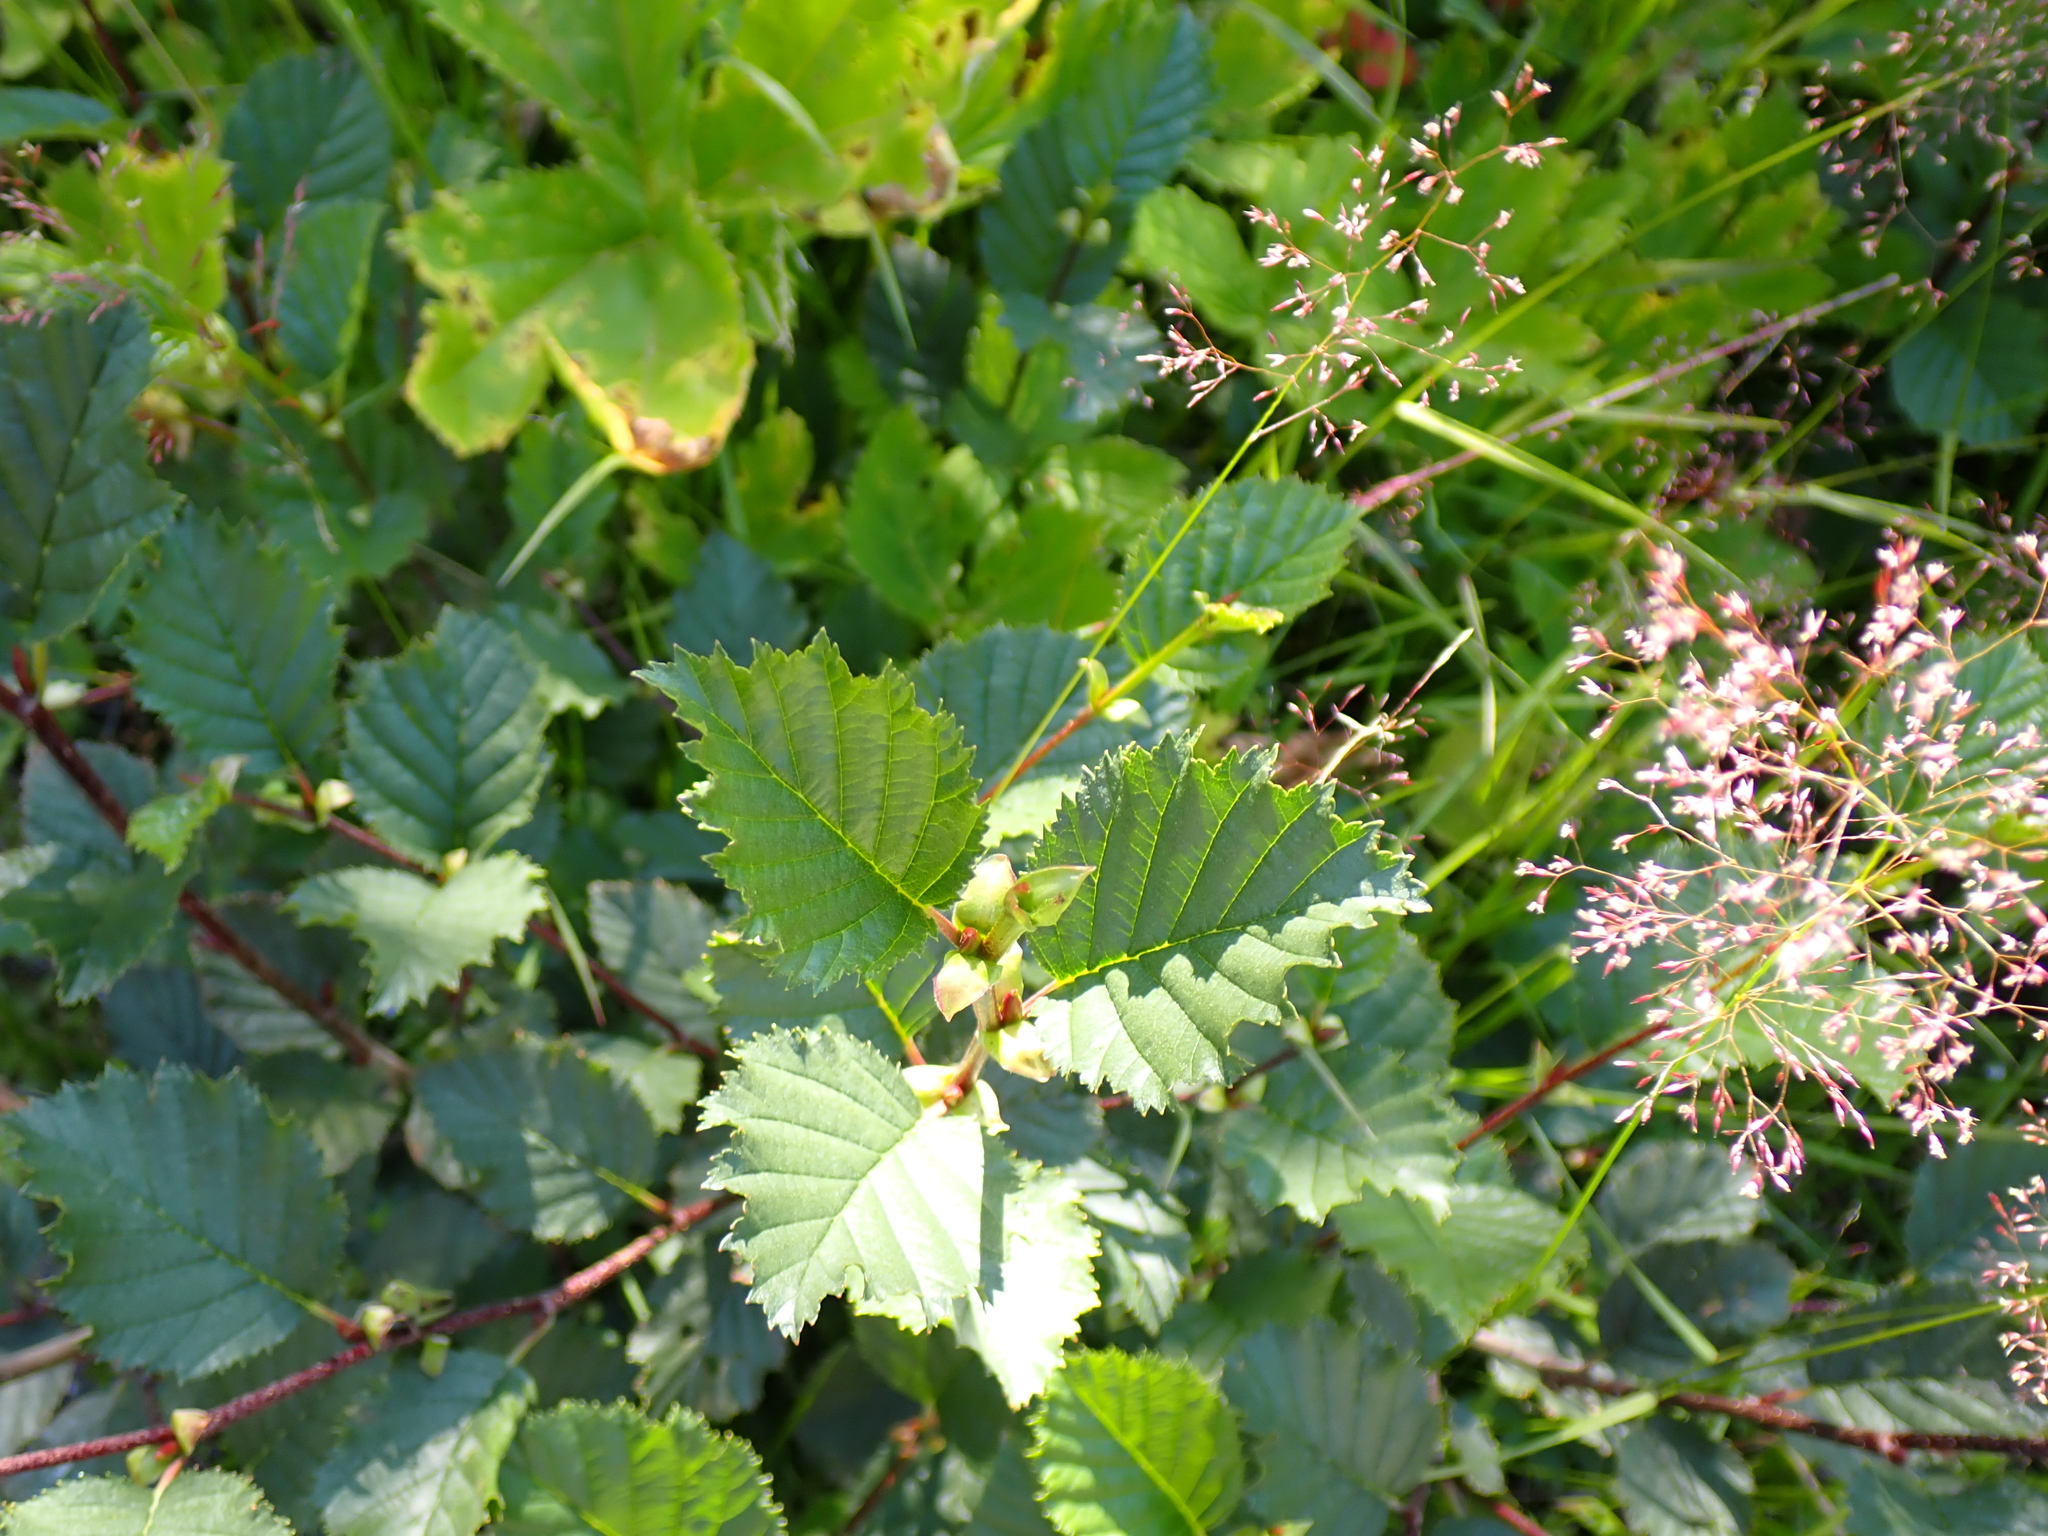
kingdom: Plantae
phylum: Tracheophyta
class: Magnoliopsida
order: Fagales
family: Betulaceae
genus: Alnus
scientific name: Alnus alnobetula
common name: Green alder
